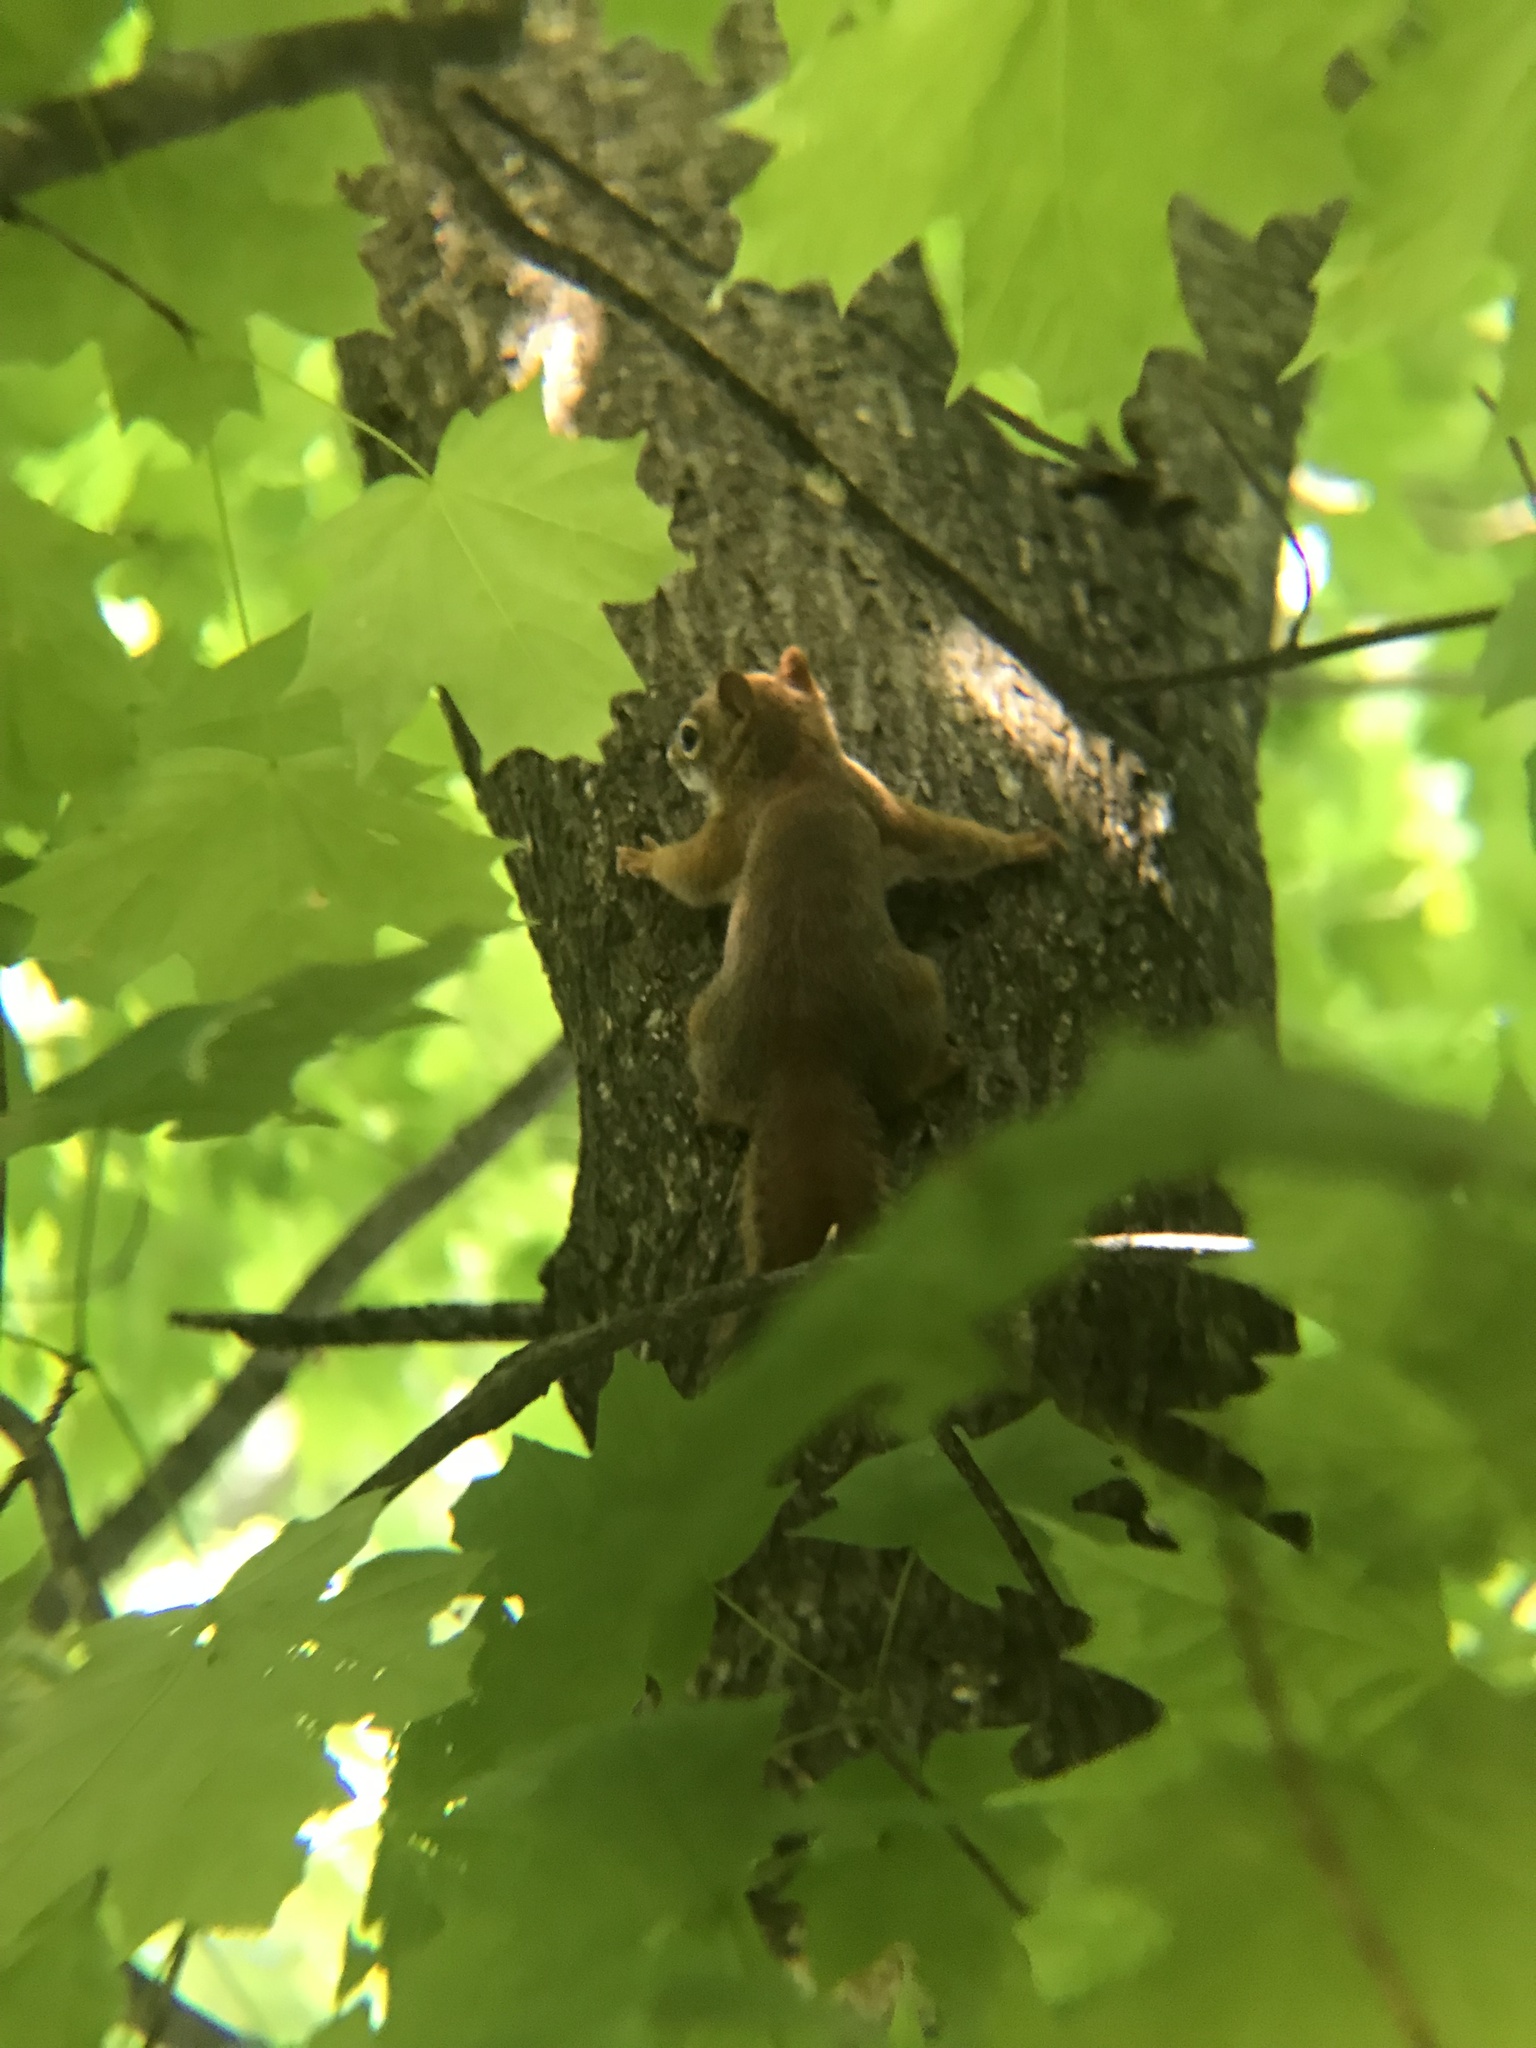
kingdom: Animalia
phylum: Chordata
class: Mammalia
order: Rodentia
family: Sciuridae
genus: Tamiasciurus
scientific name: Tamiasciurus hudsonicus
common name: Red squirrel
